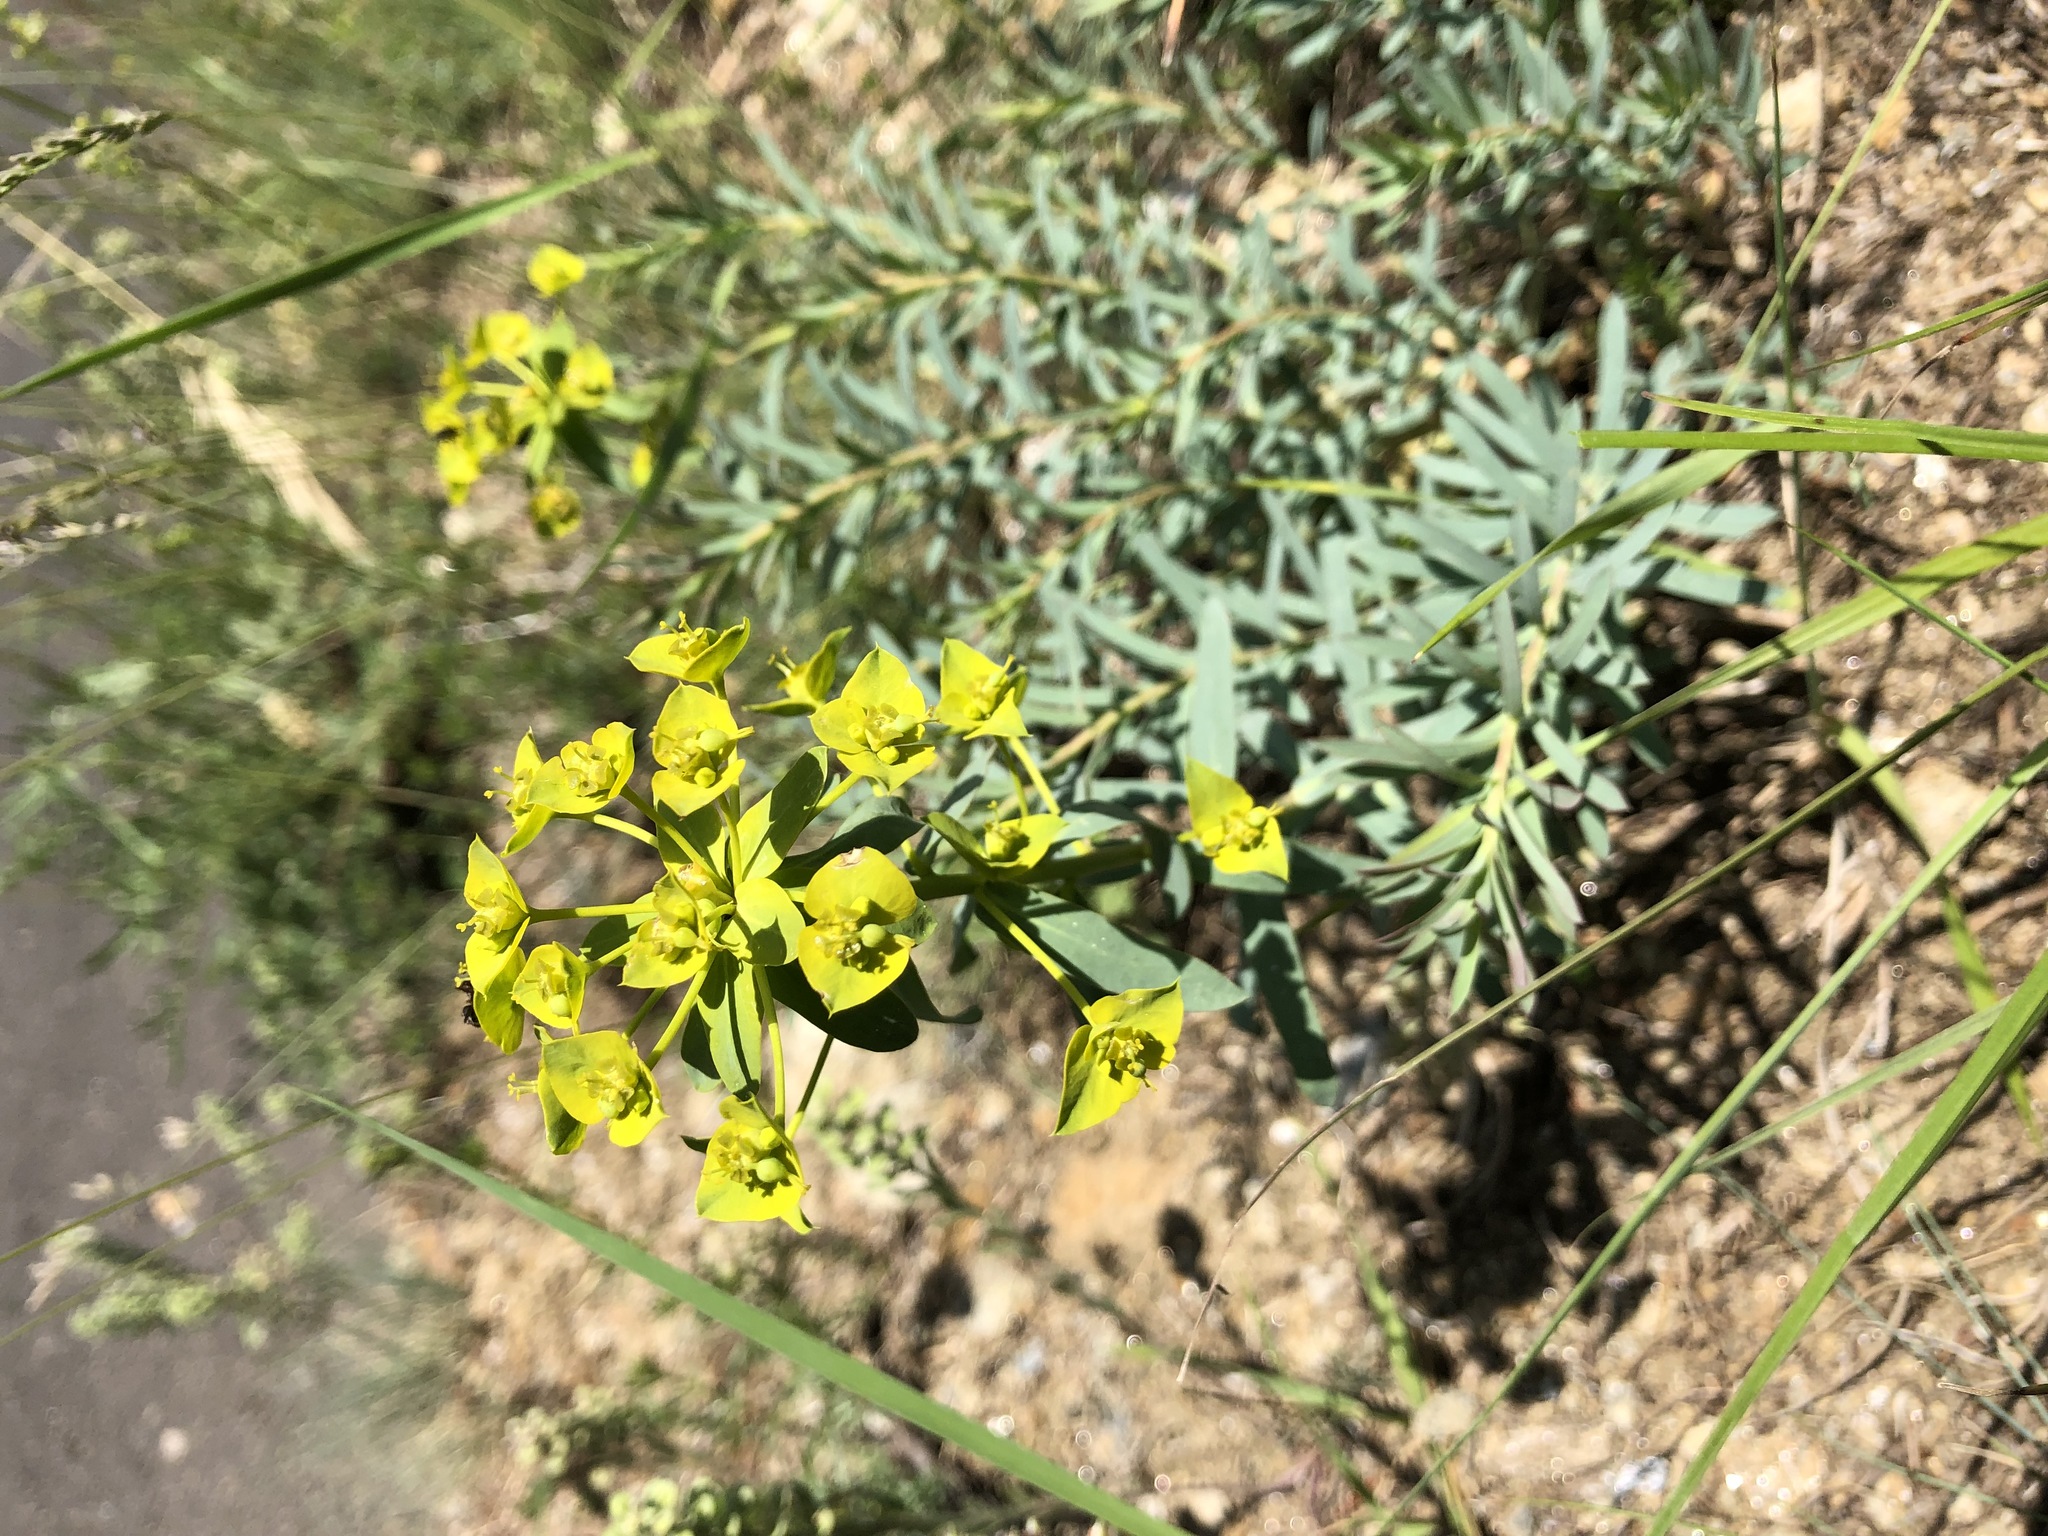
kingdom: Plantae
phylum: Tracheophyta
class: Magnoliopsida
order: Malpighiales
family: Euphorbiaceae
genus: Euphorbia
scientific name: Euphorbia seguieriana
